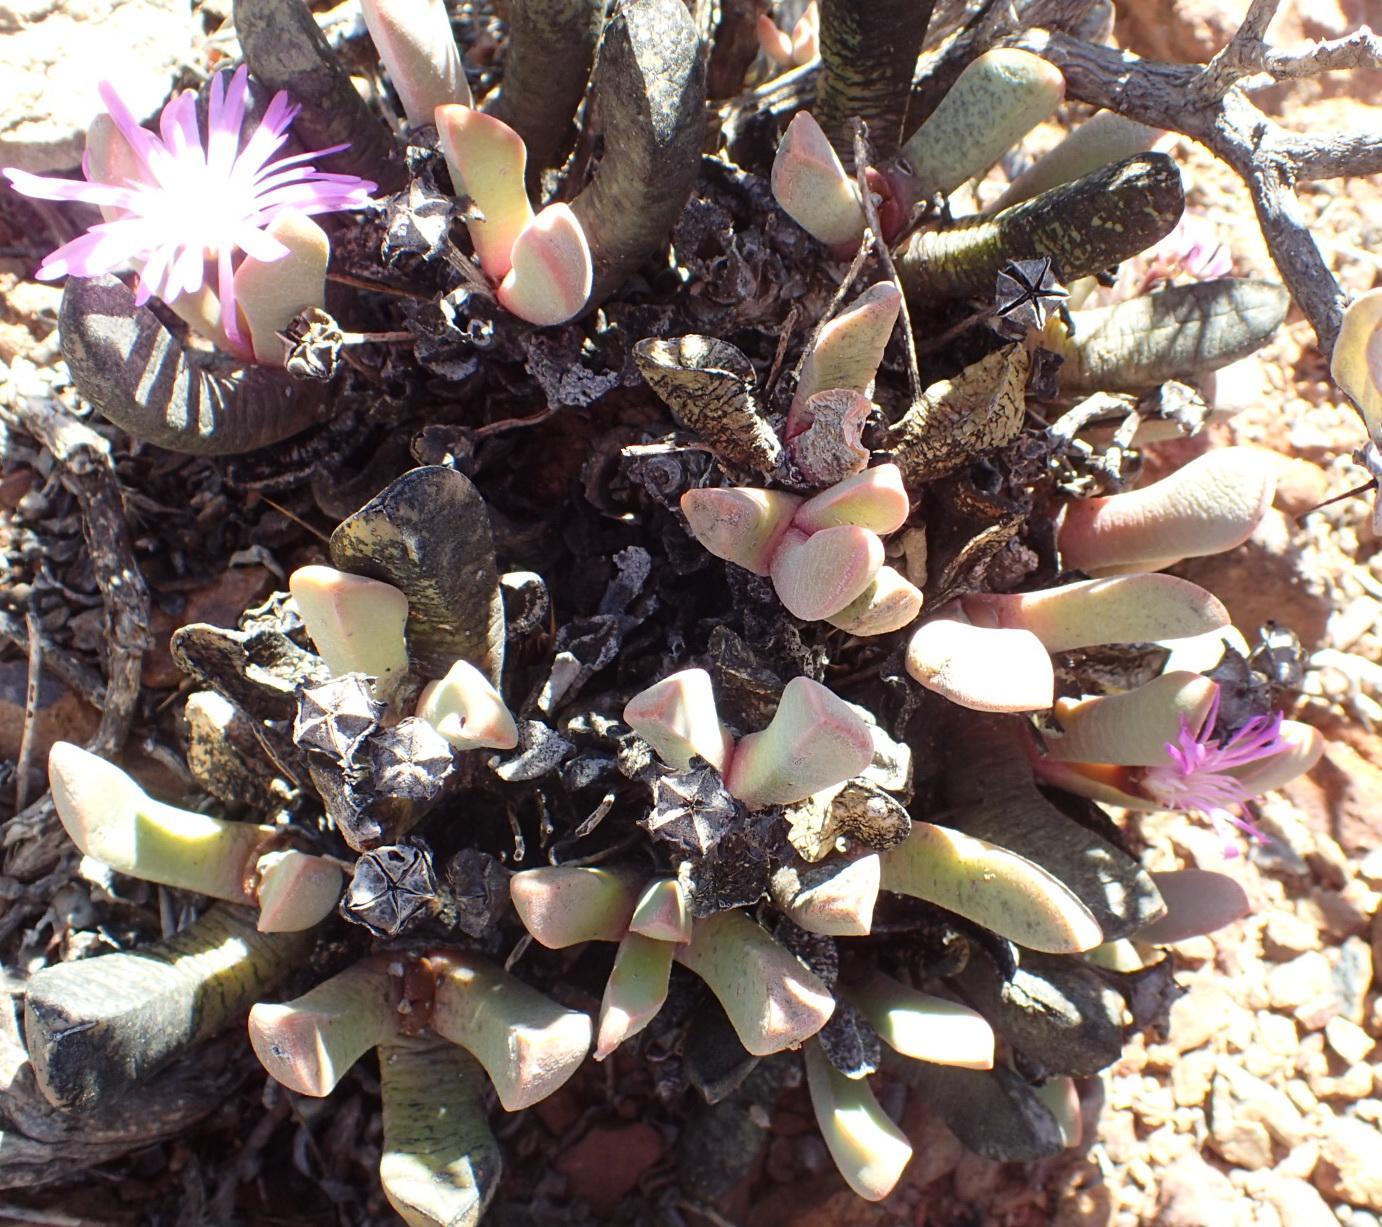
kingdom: Plantae
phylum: Tracheophyta
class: Magnoliopsida
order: Caryophyllales
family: Aizoaceae
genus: Cerochlamys
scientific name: Cerochlamys pachyphylla
